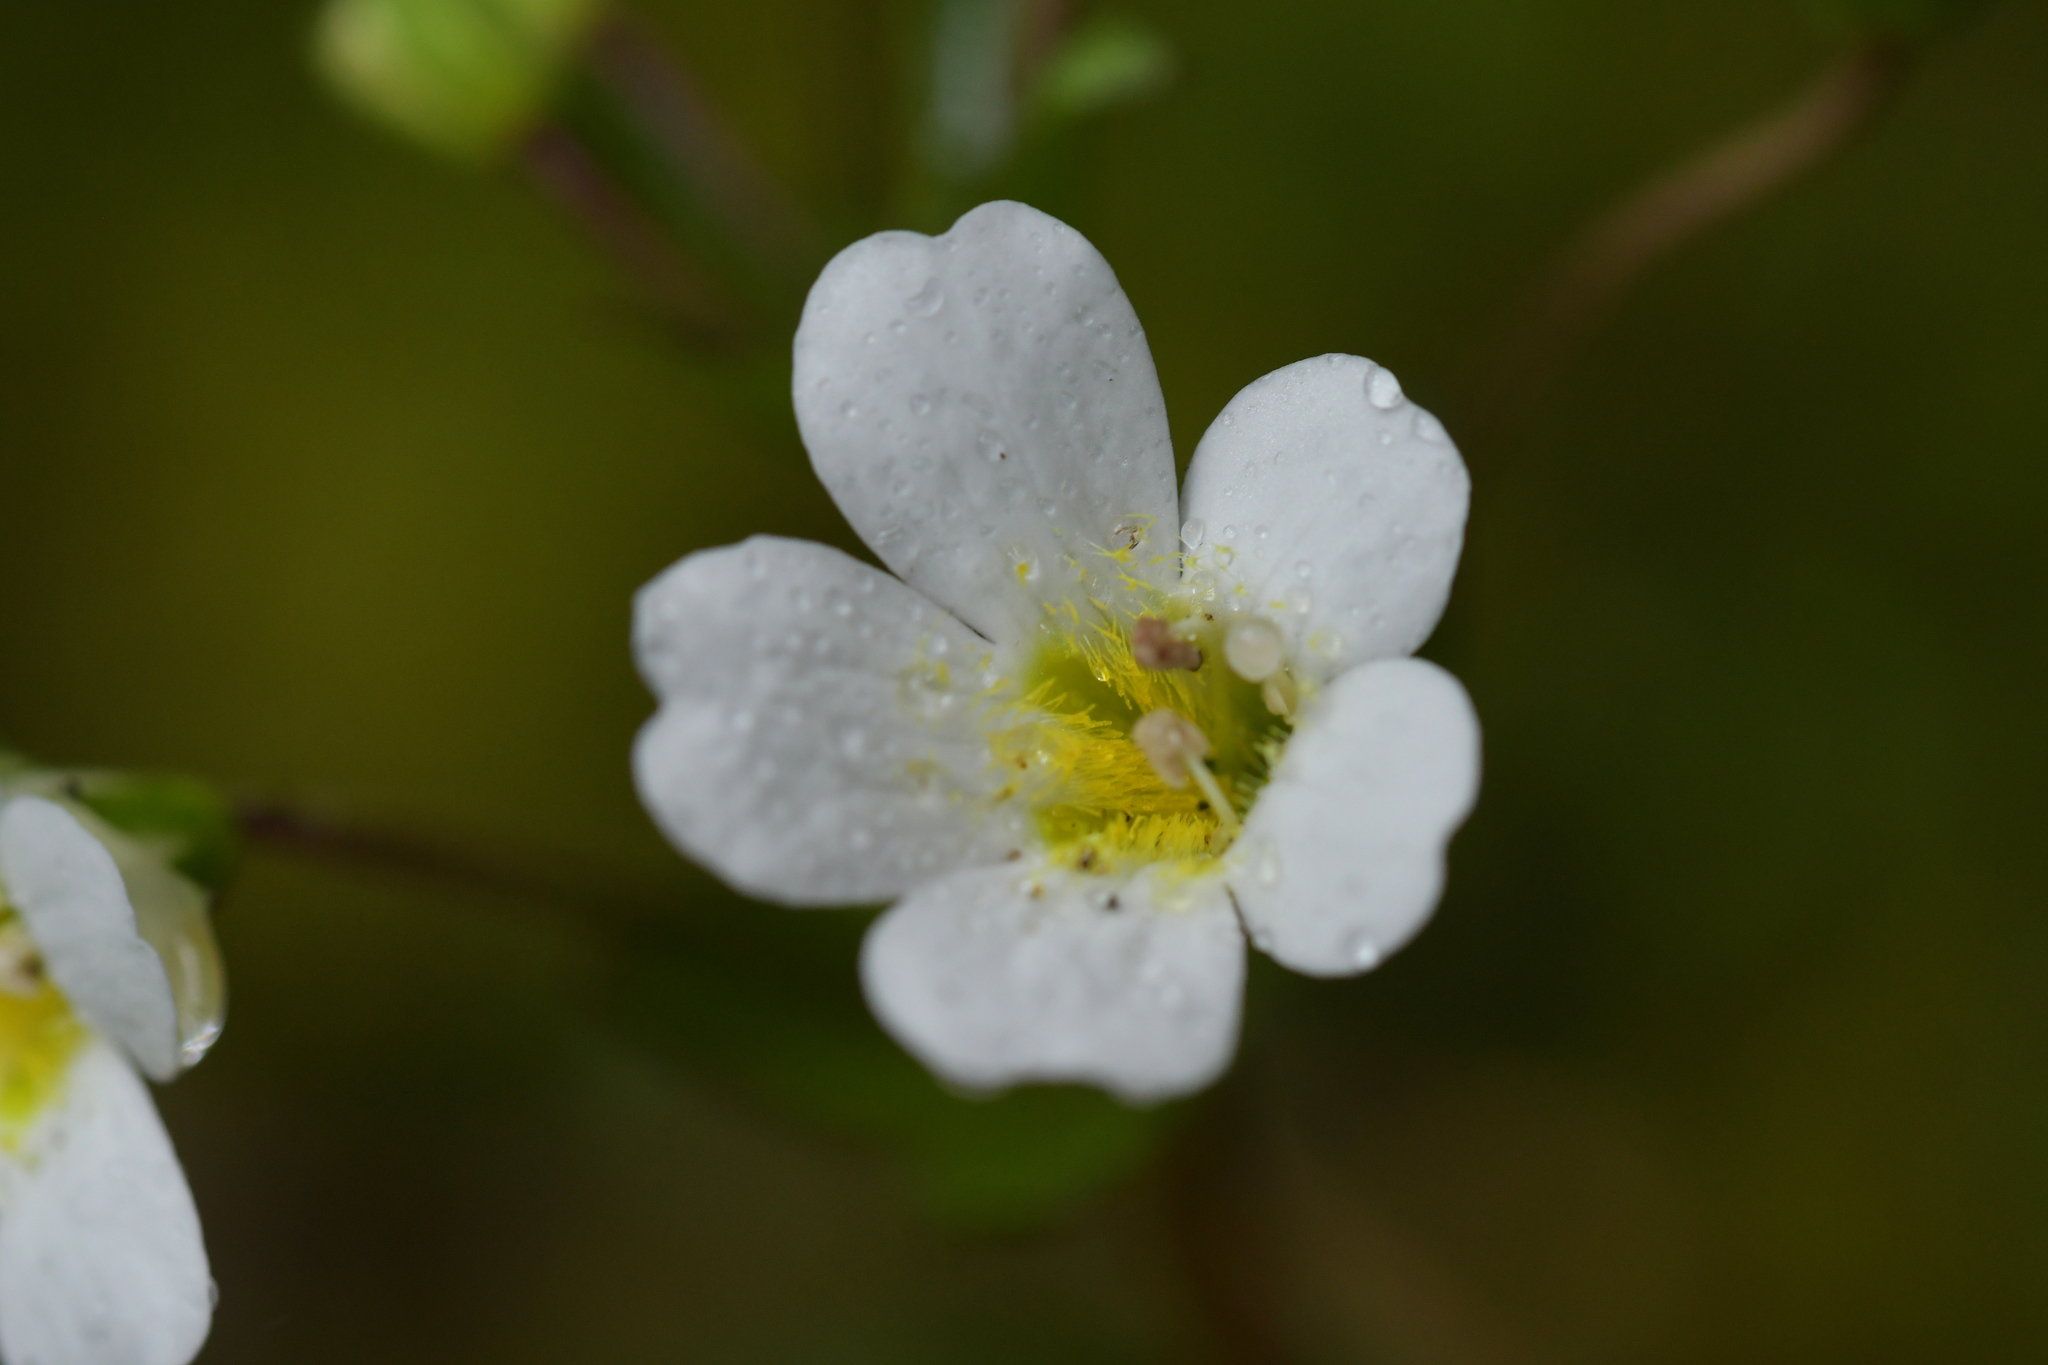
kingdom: Plantae
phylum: Tracheophyta
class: Magnoliopsida
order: Lamiales
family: Plantaginaceae
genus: Ourisia
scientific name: Ourisia macrophylla
